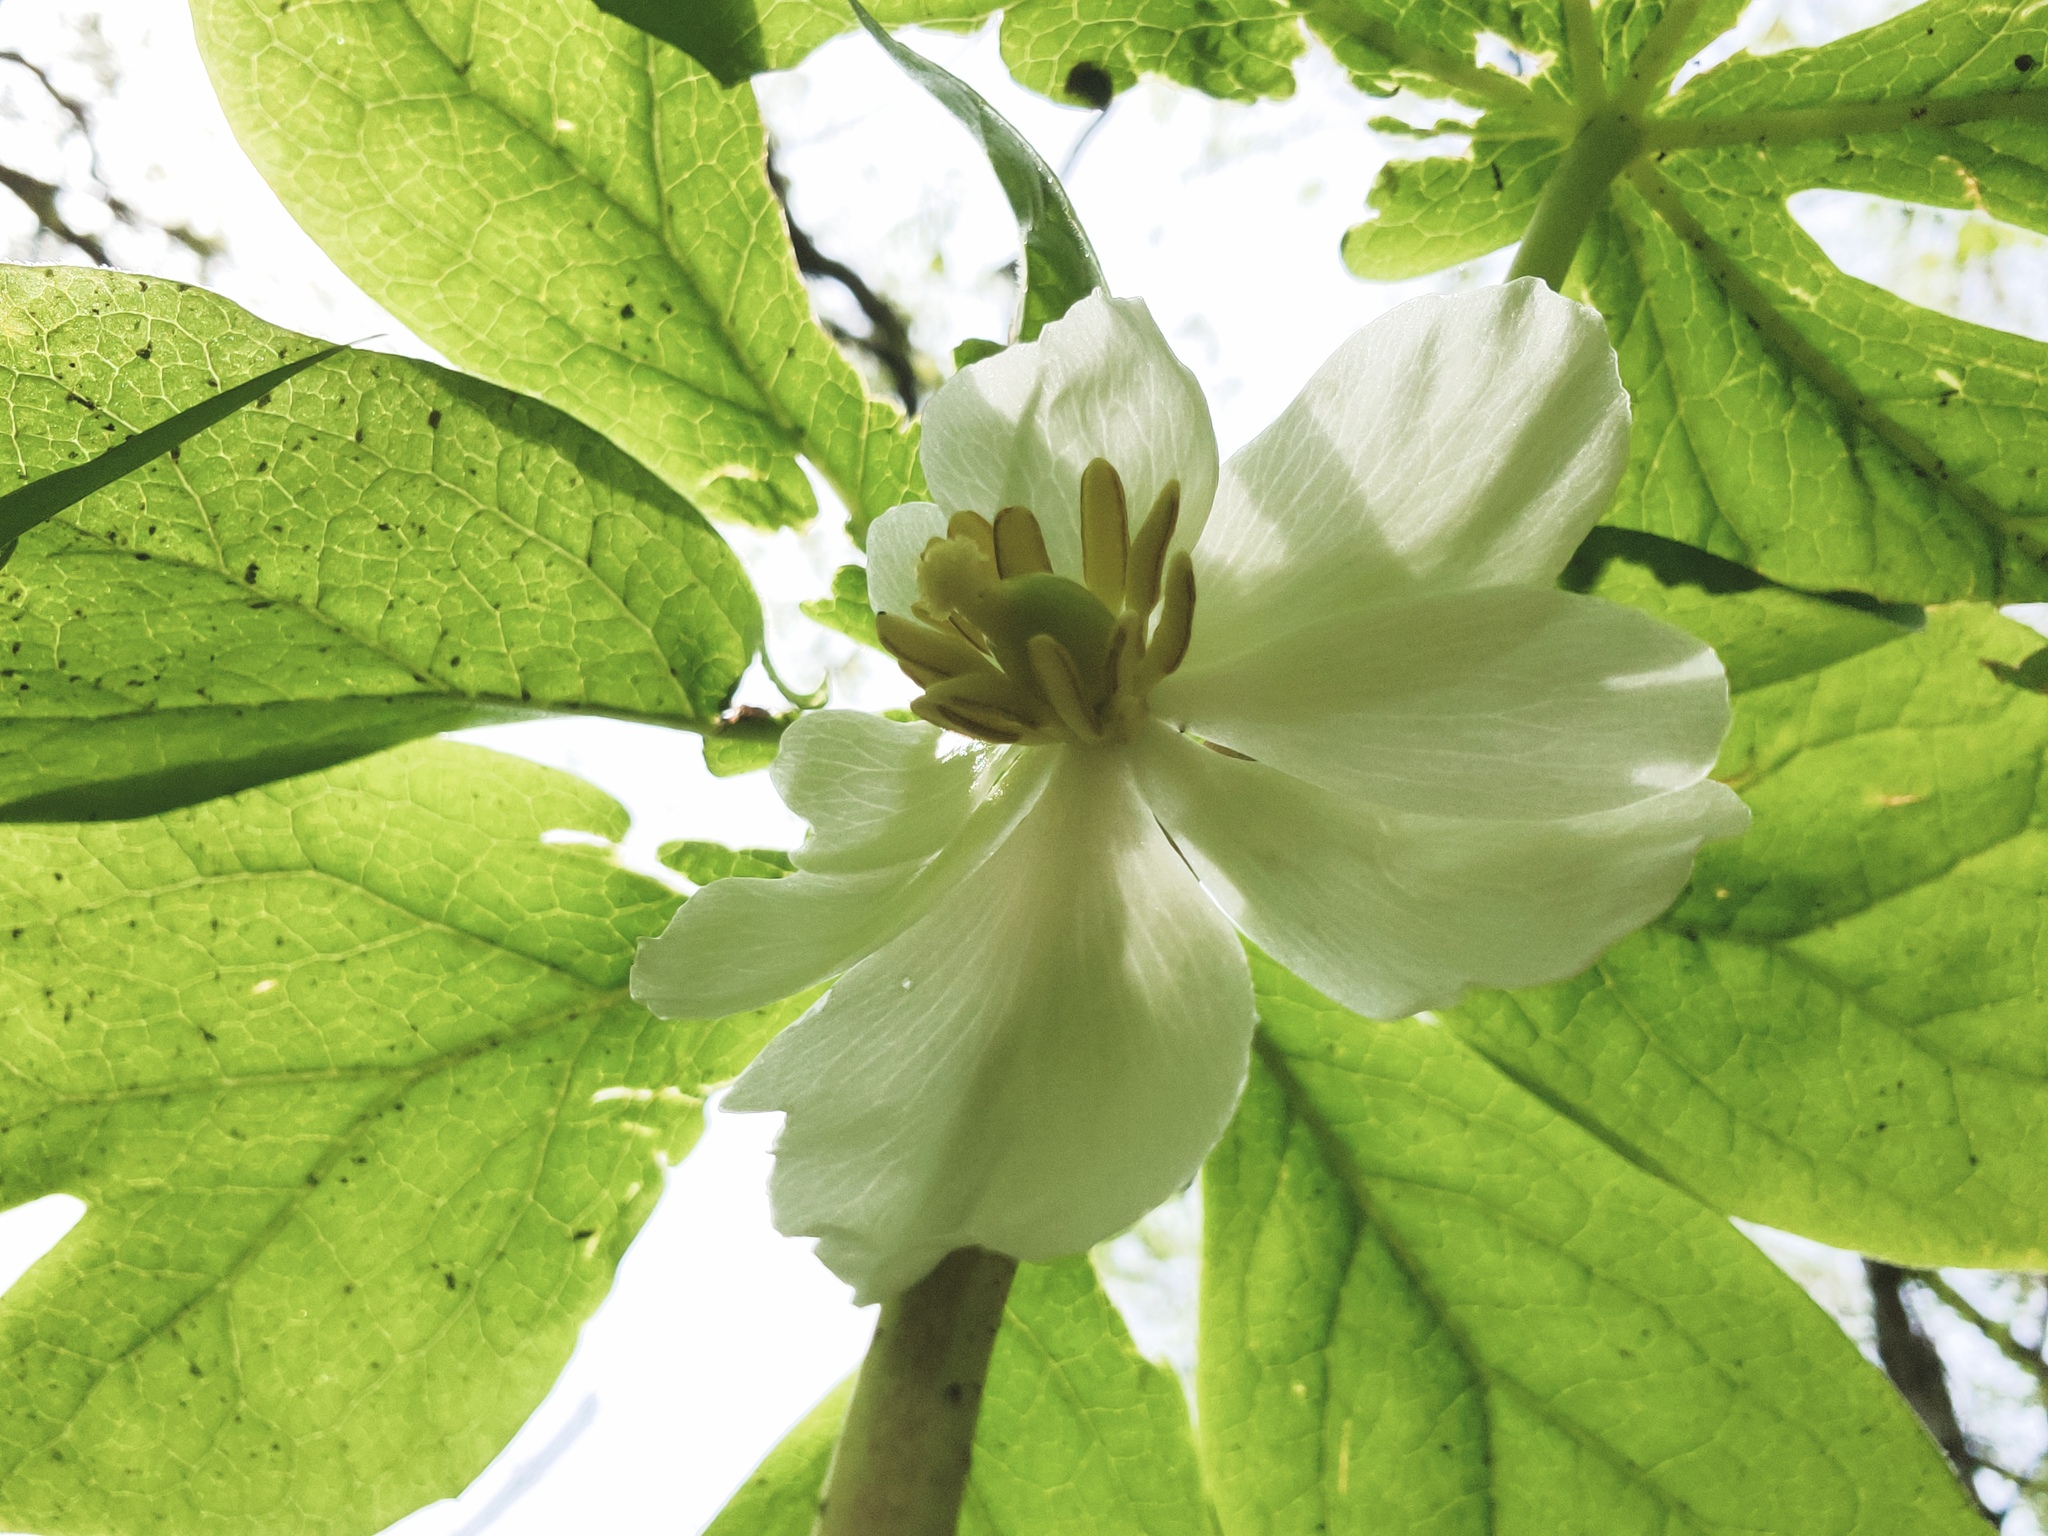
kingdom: Plantae
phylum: Tracheophyta
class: Magnoliopsida
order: Ranunculales
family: Berberidaceae
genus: Podophyllum
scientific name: Podophyllum peltatum
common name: Wild mandrake
